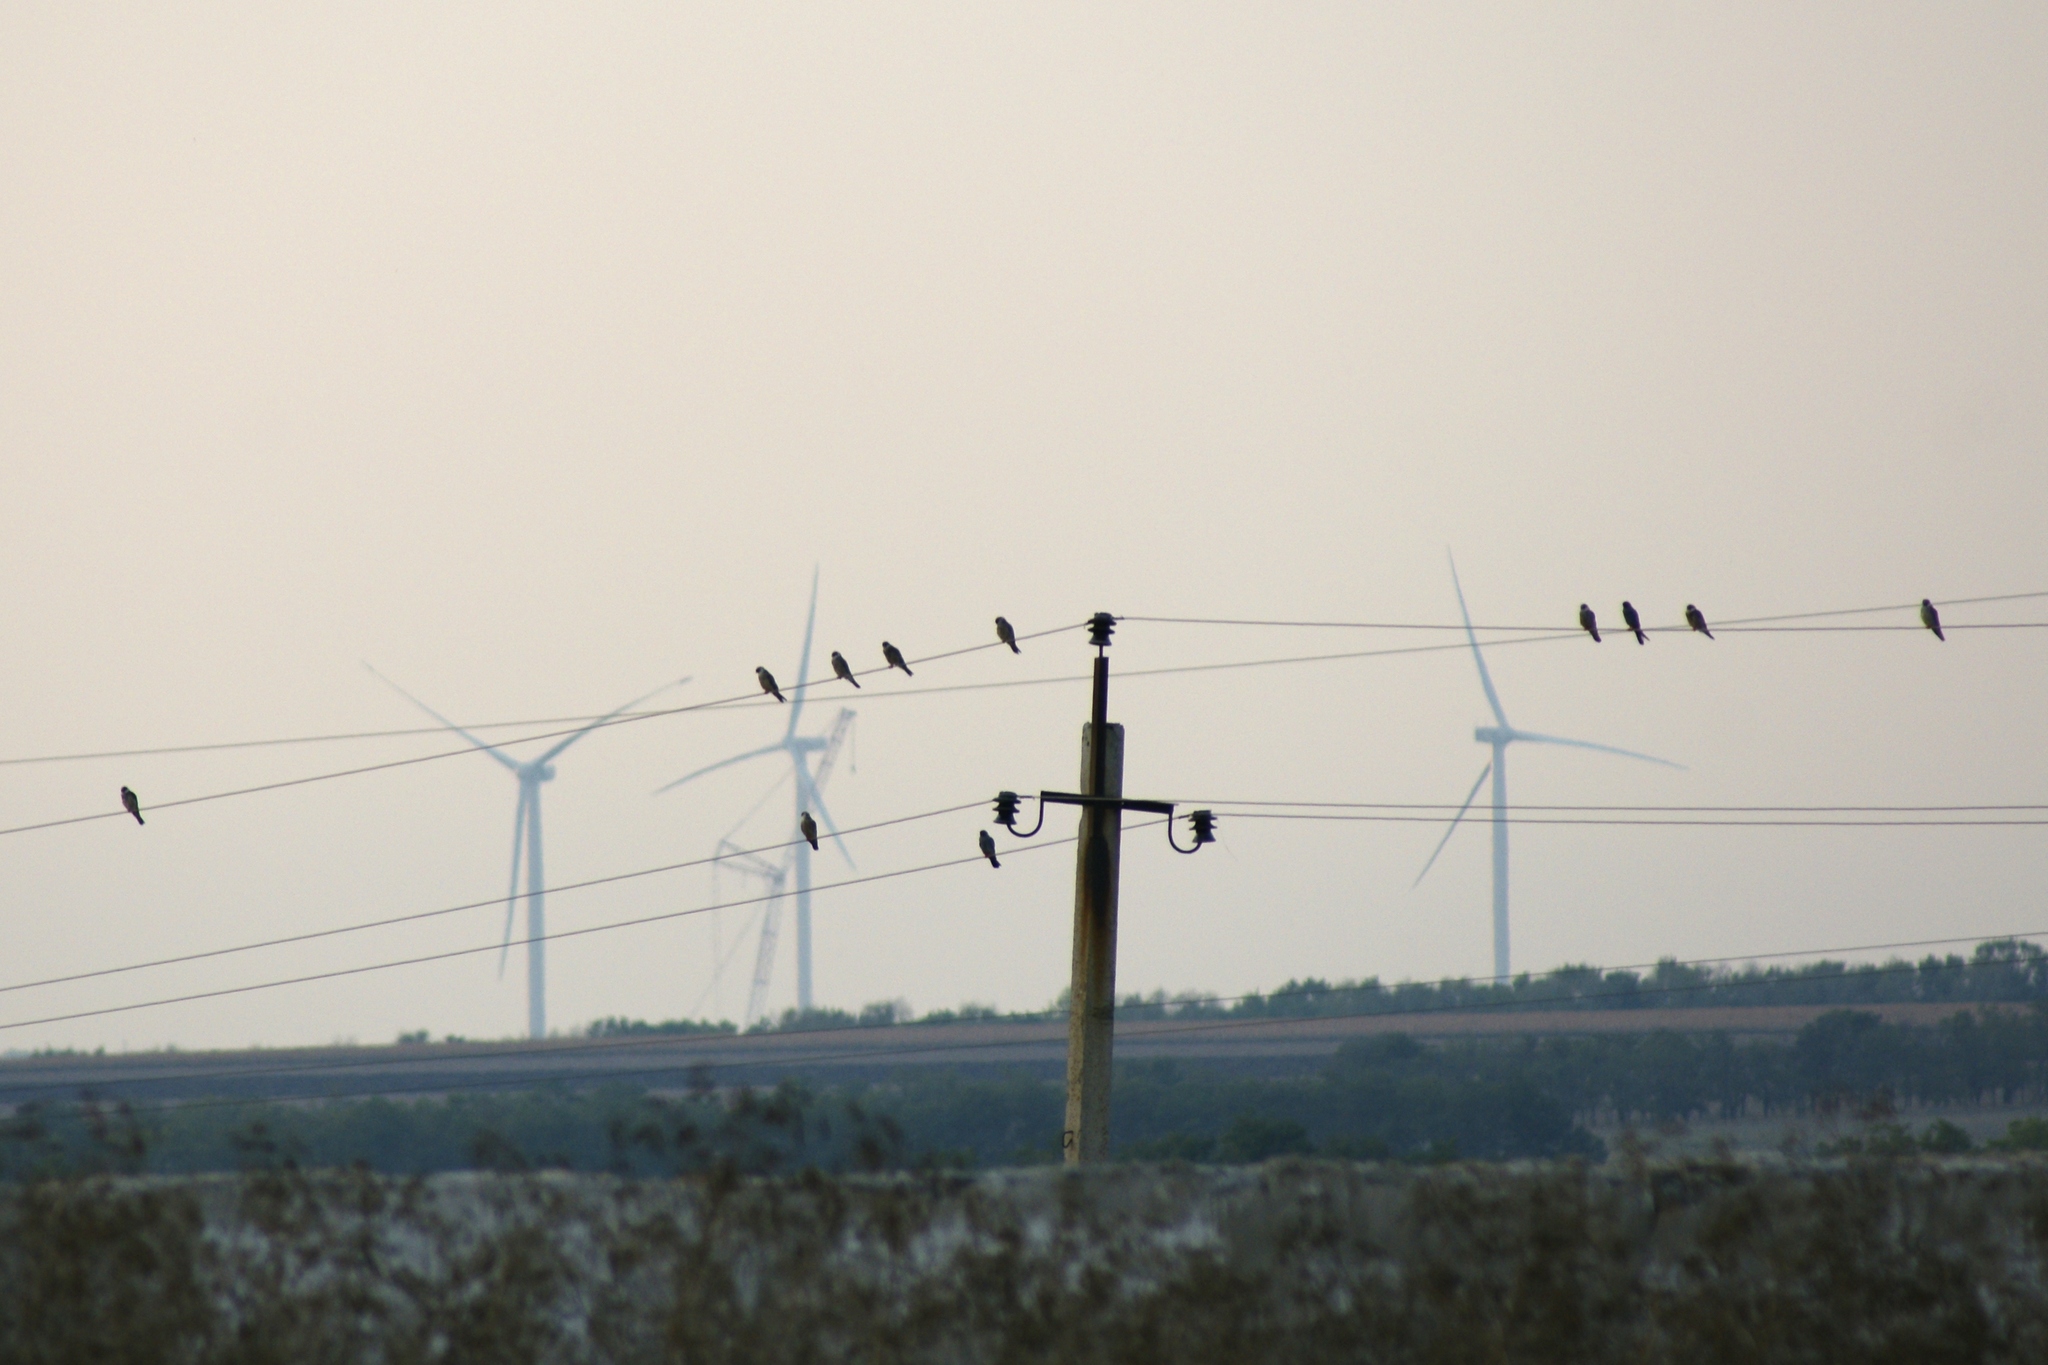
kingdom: Animalia
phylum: Chordata
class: Aves
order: Falconiformes
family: Falconidae
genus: Falco
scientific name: Falco subbuteo
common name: Eurasian hobby
